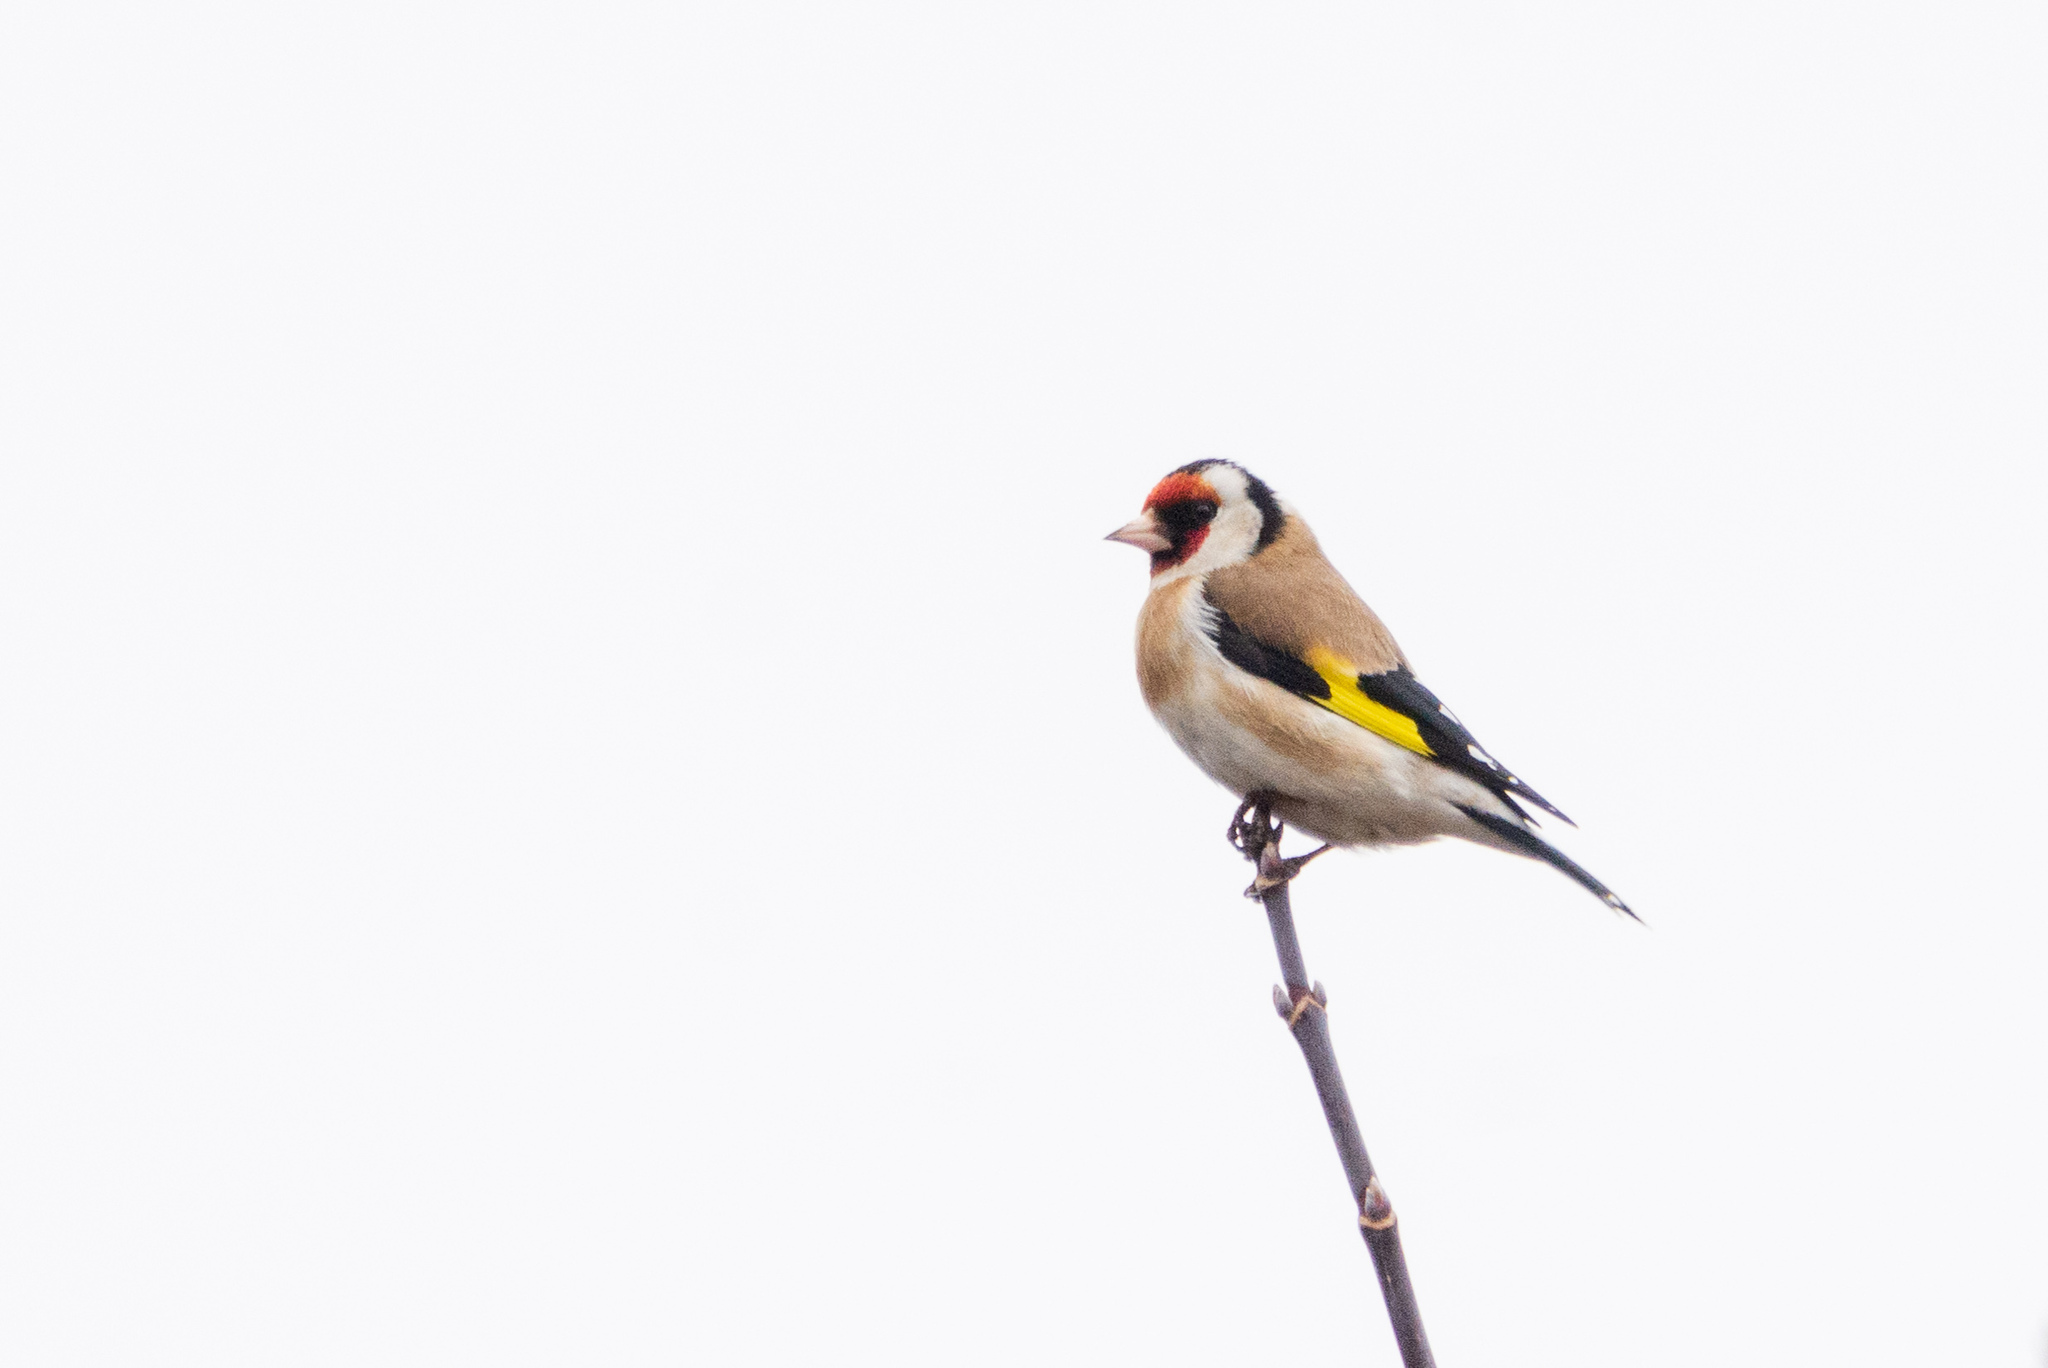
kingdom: Animalia
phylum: Chordata
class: Aves
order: Passeriformes
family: Fringillidae
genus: Carduelis
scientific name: Carduelis carduelis
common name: European goldfinch
